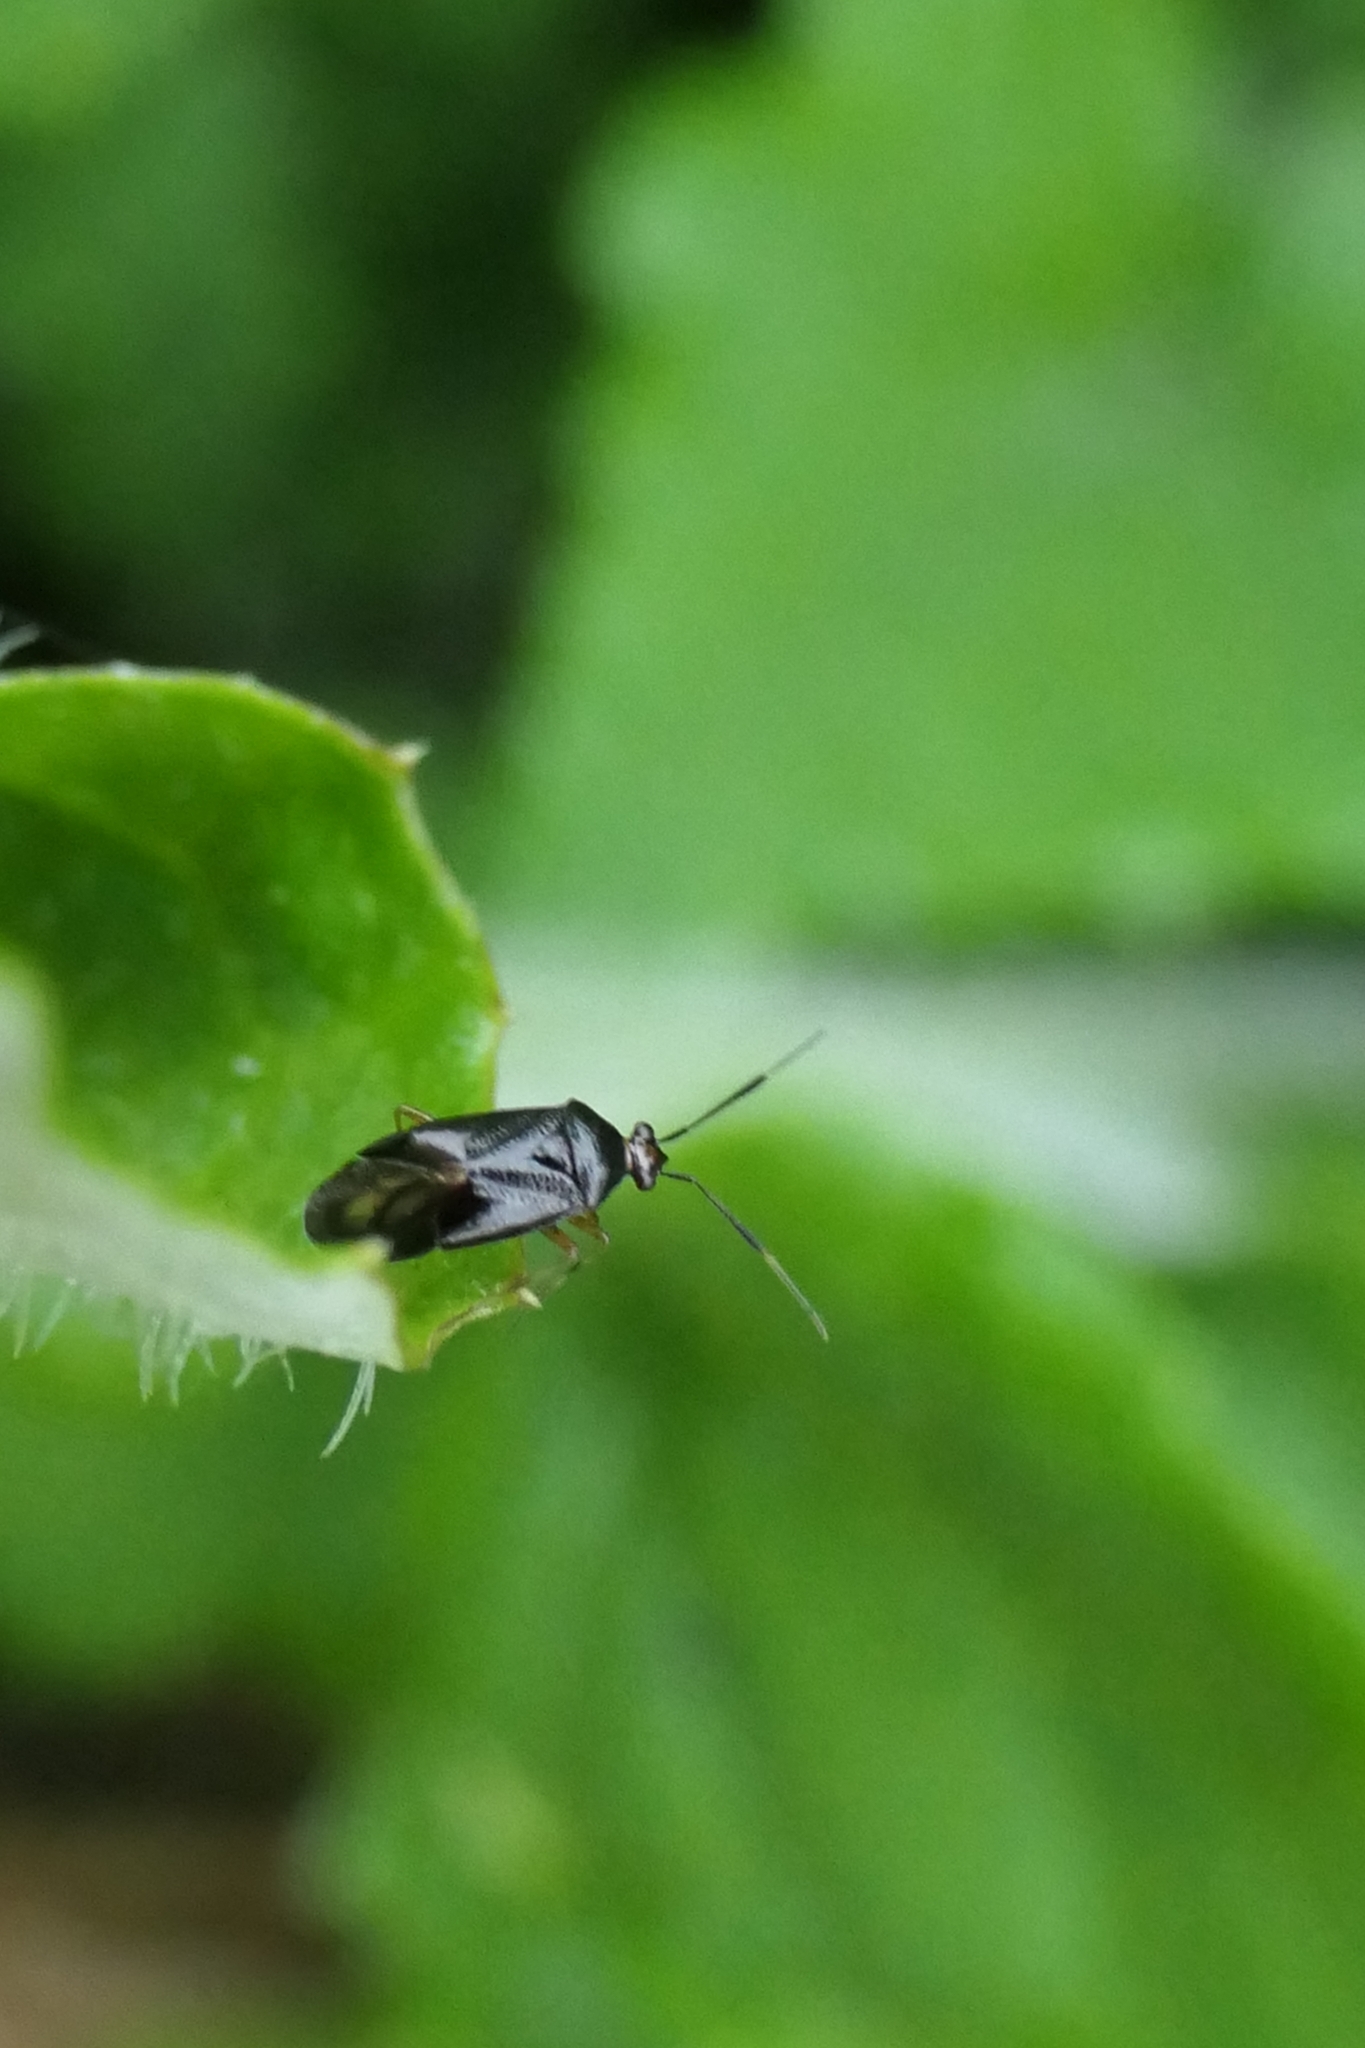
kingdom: Animalia
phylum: Arthropoda
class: Insecta
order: Hemiptera
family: Miridae
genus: Deraeocoris
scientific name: Deraeocoris maoricus
